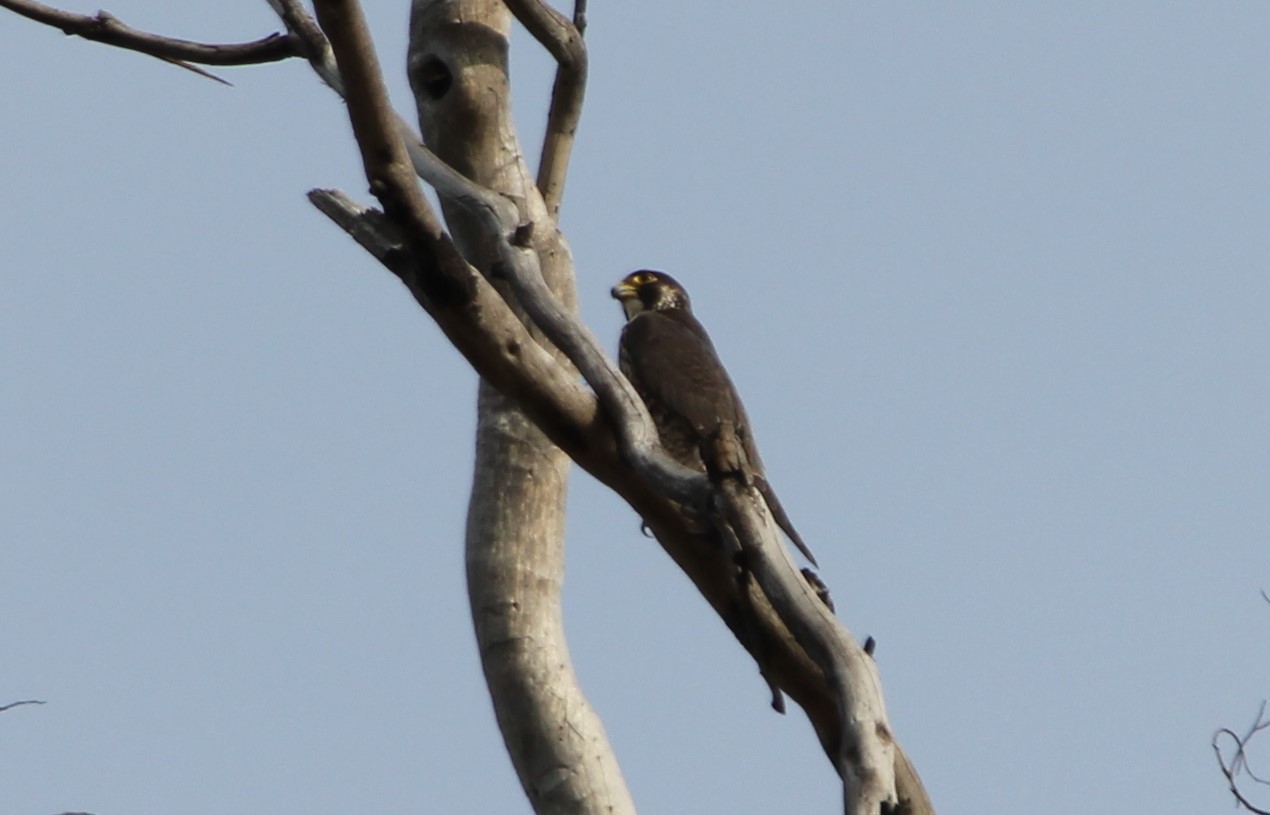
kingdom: Animalia
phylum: Chordata
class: Aves
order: Falconiformes
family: Falconidae
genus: Falco
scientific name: Falco peregrinus
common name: Peregrine falcon
